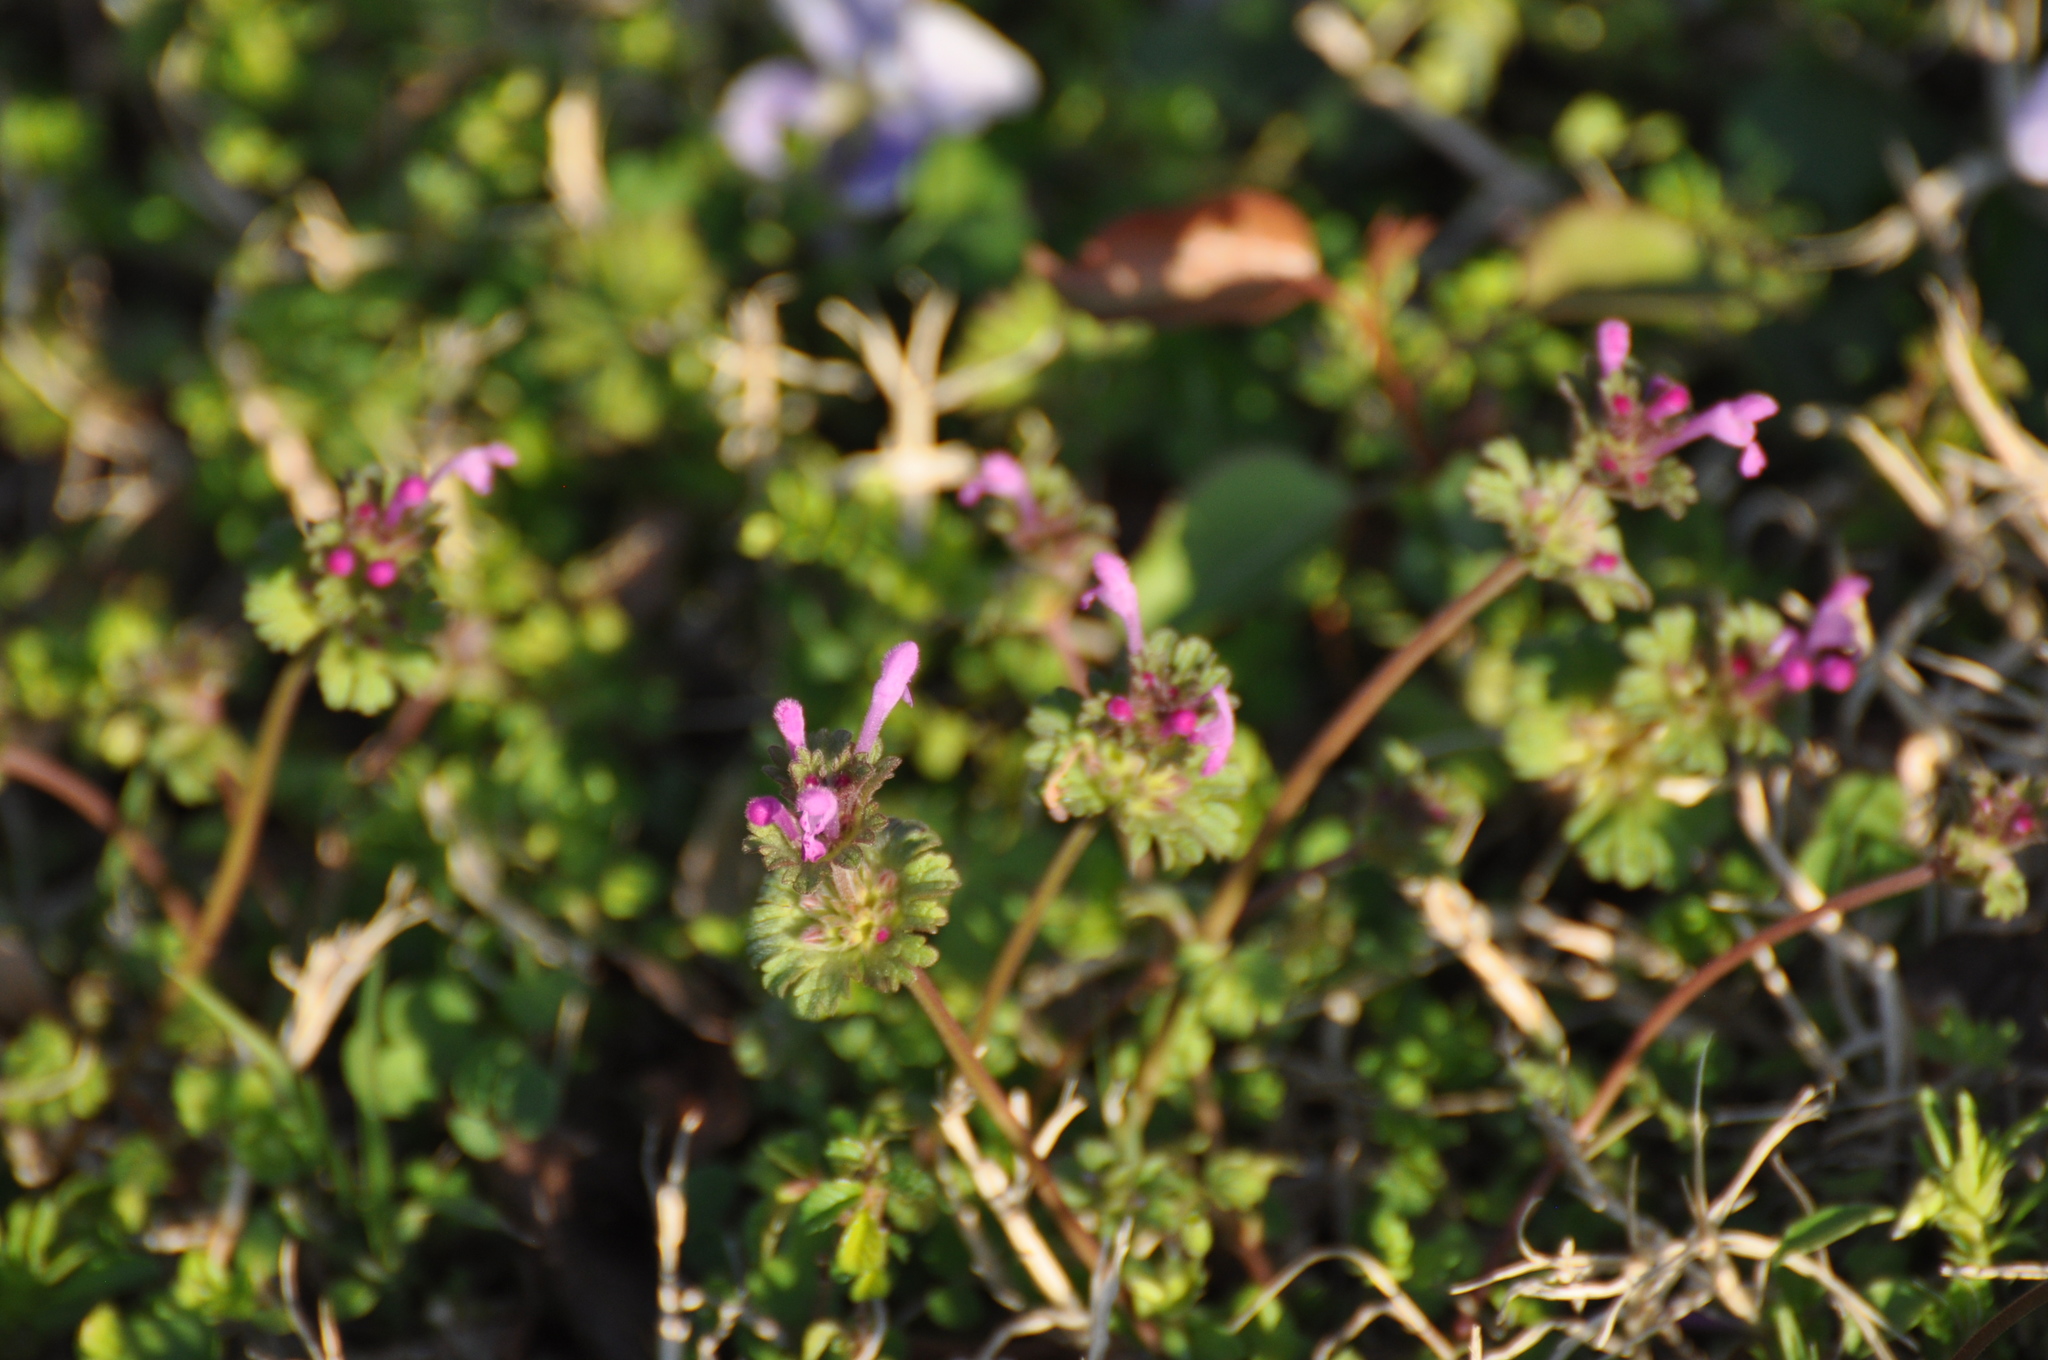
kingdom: Plantae
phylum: Tracheophyta
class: Magnoliopsida
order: Lamiales
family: Lamiaceae
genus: Lamium
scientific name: Lamium amplexicaule
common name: Henbit dead-nettle
